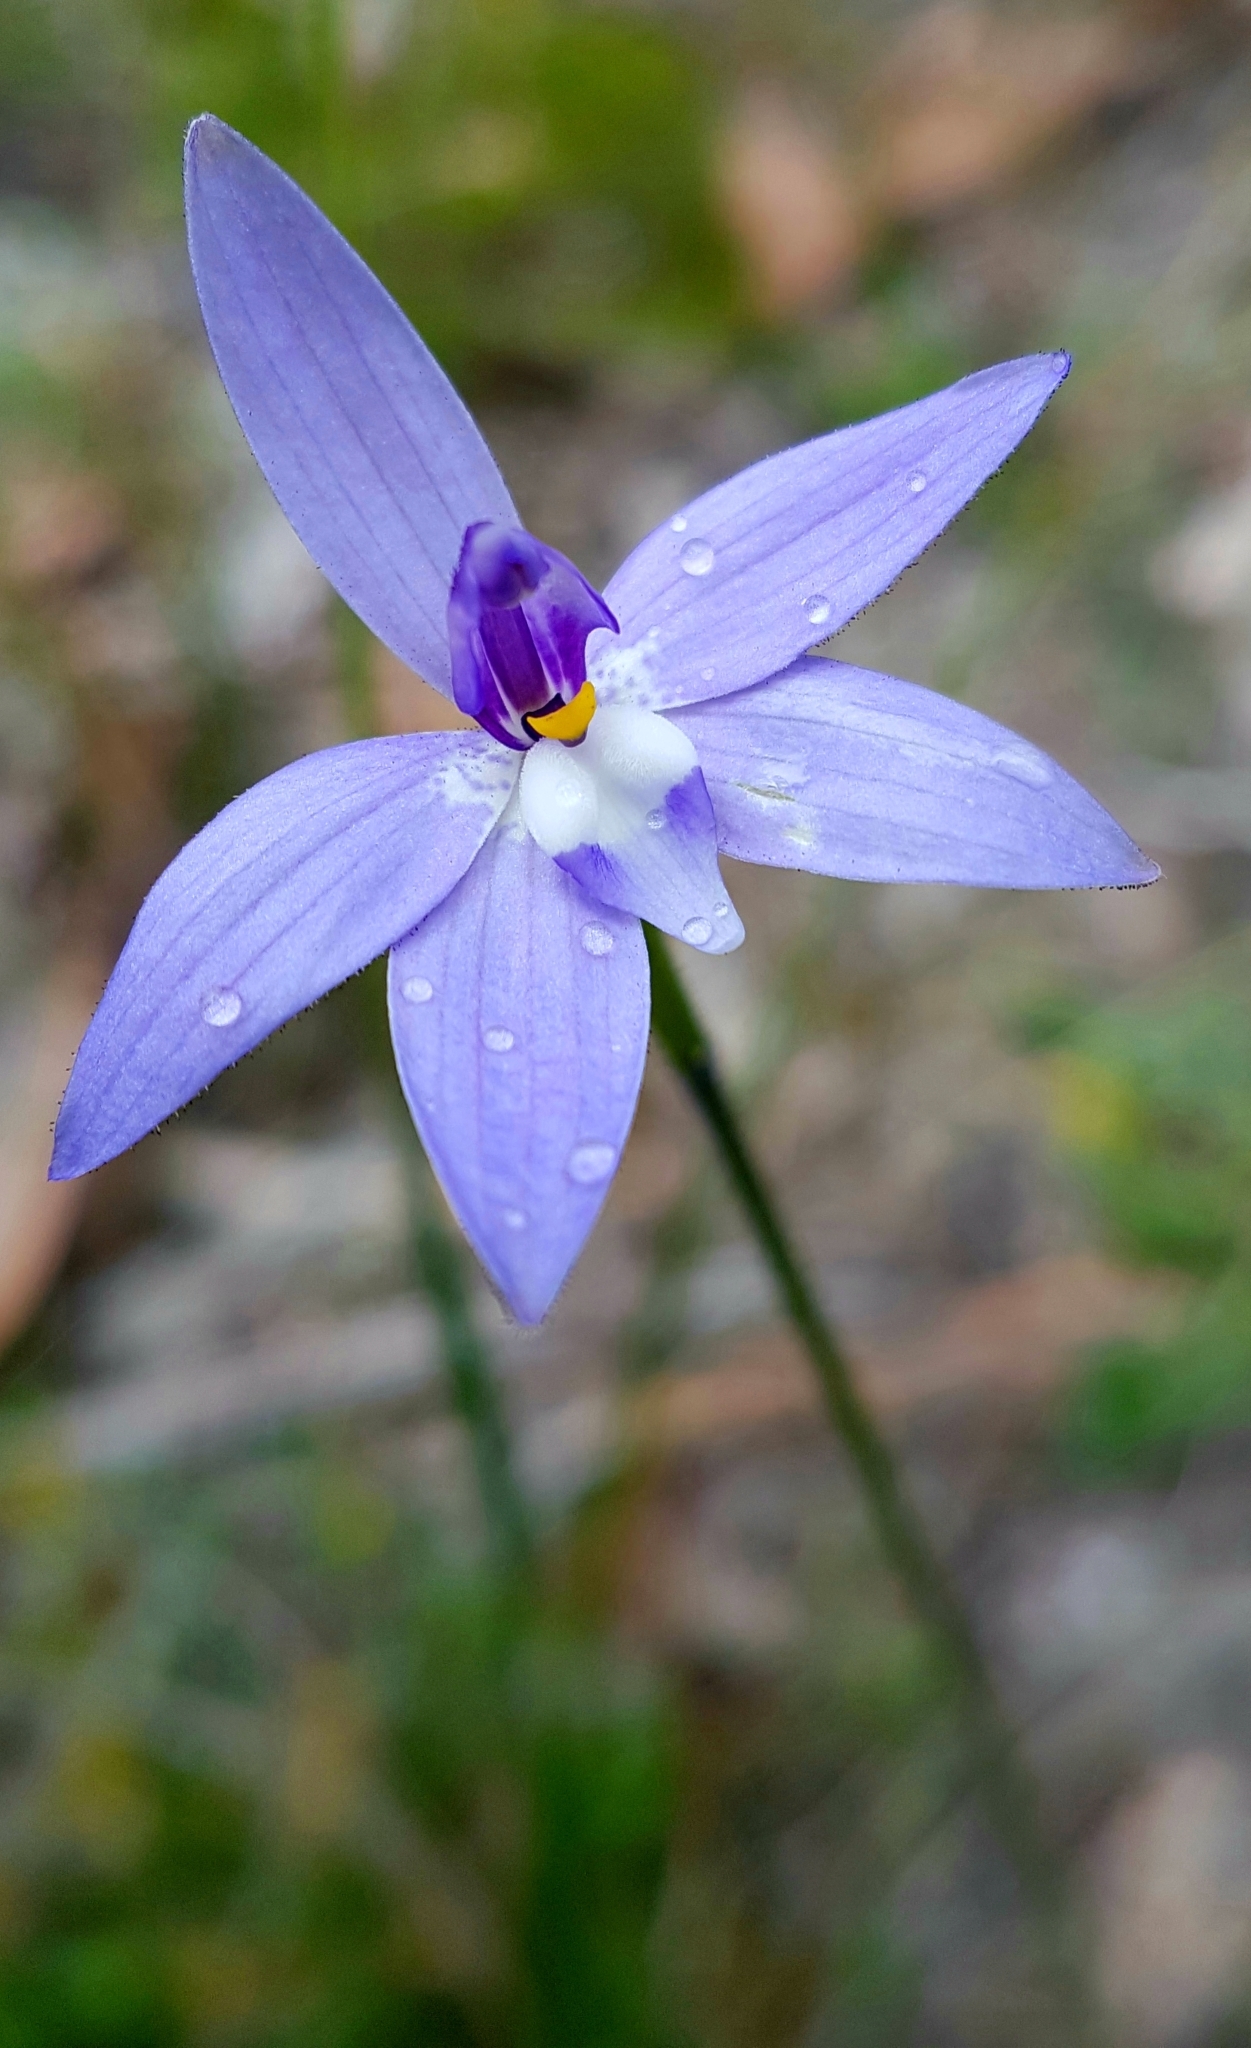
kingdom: Plantae
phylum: Tracheophyta
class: Liliopsida
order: Asparagales
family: Orchidaceae
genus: Caladenia
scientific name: Caladenia major
